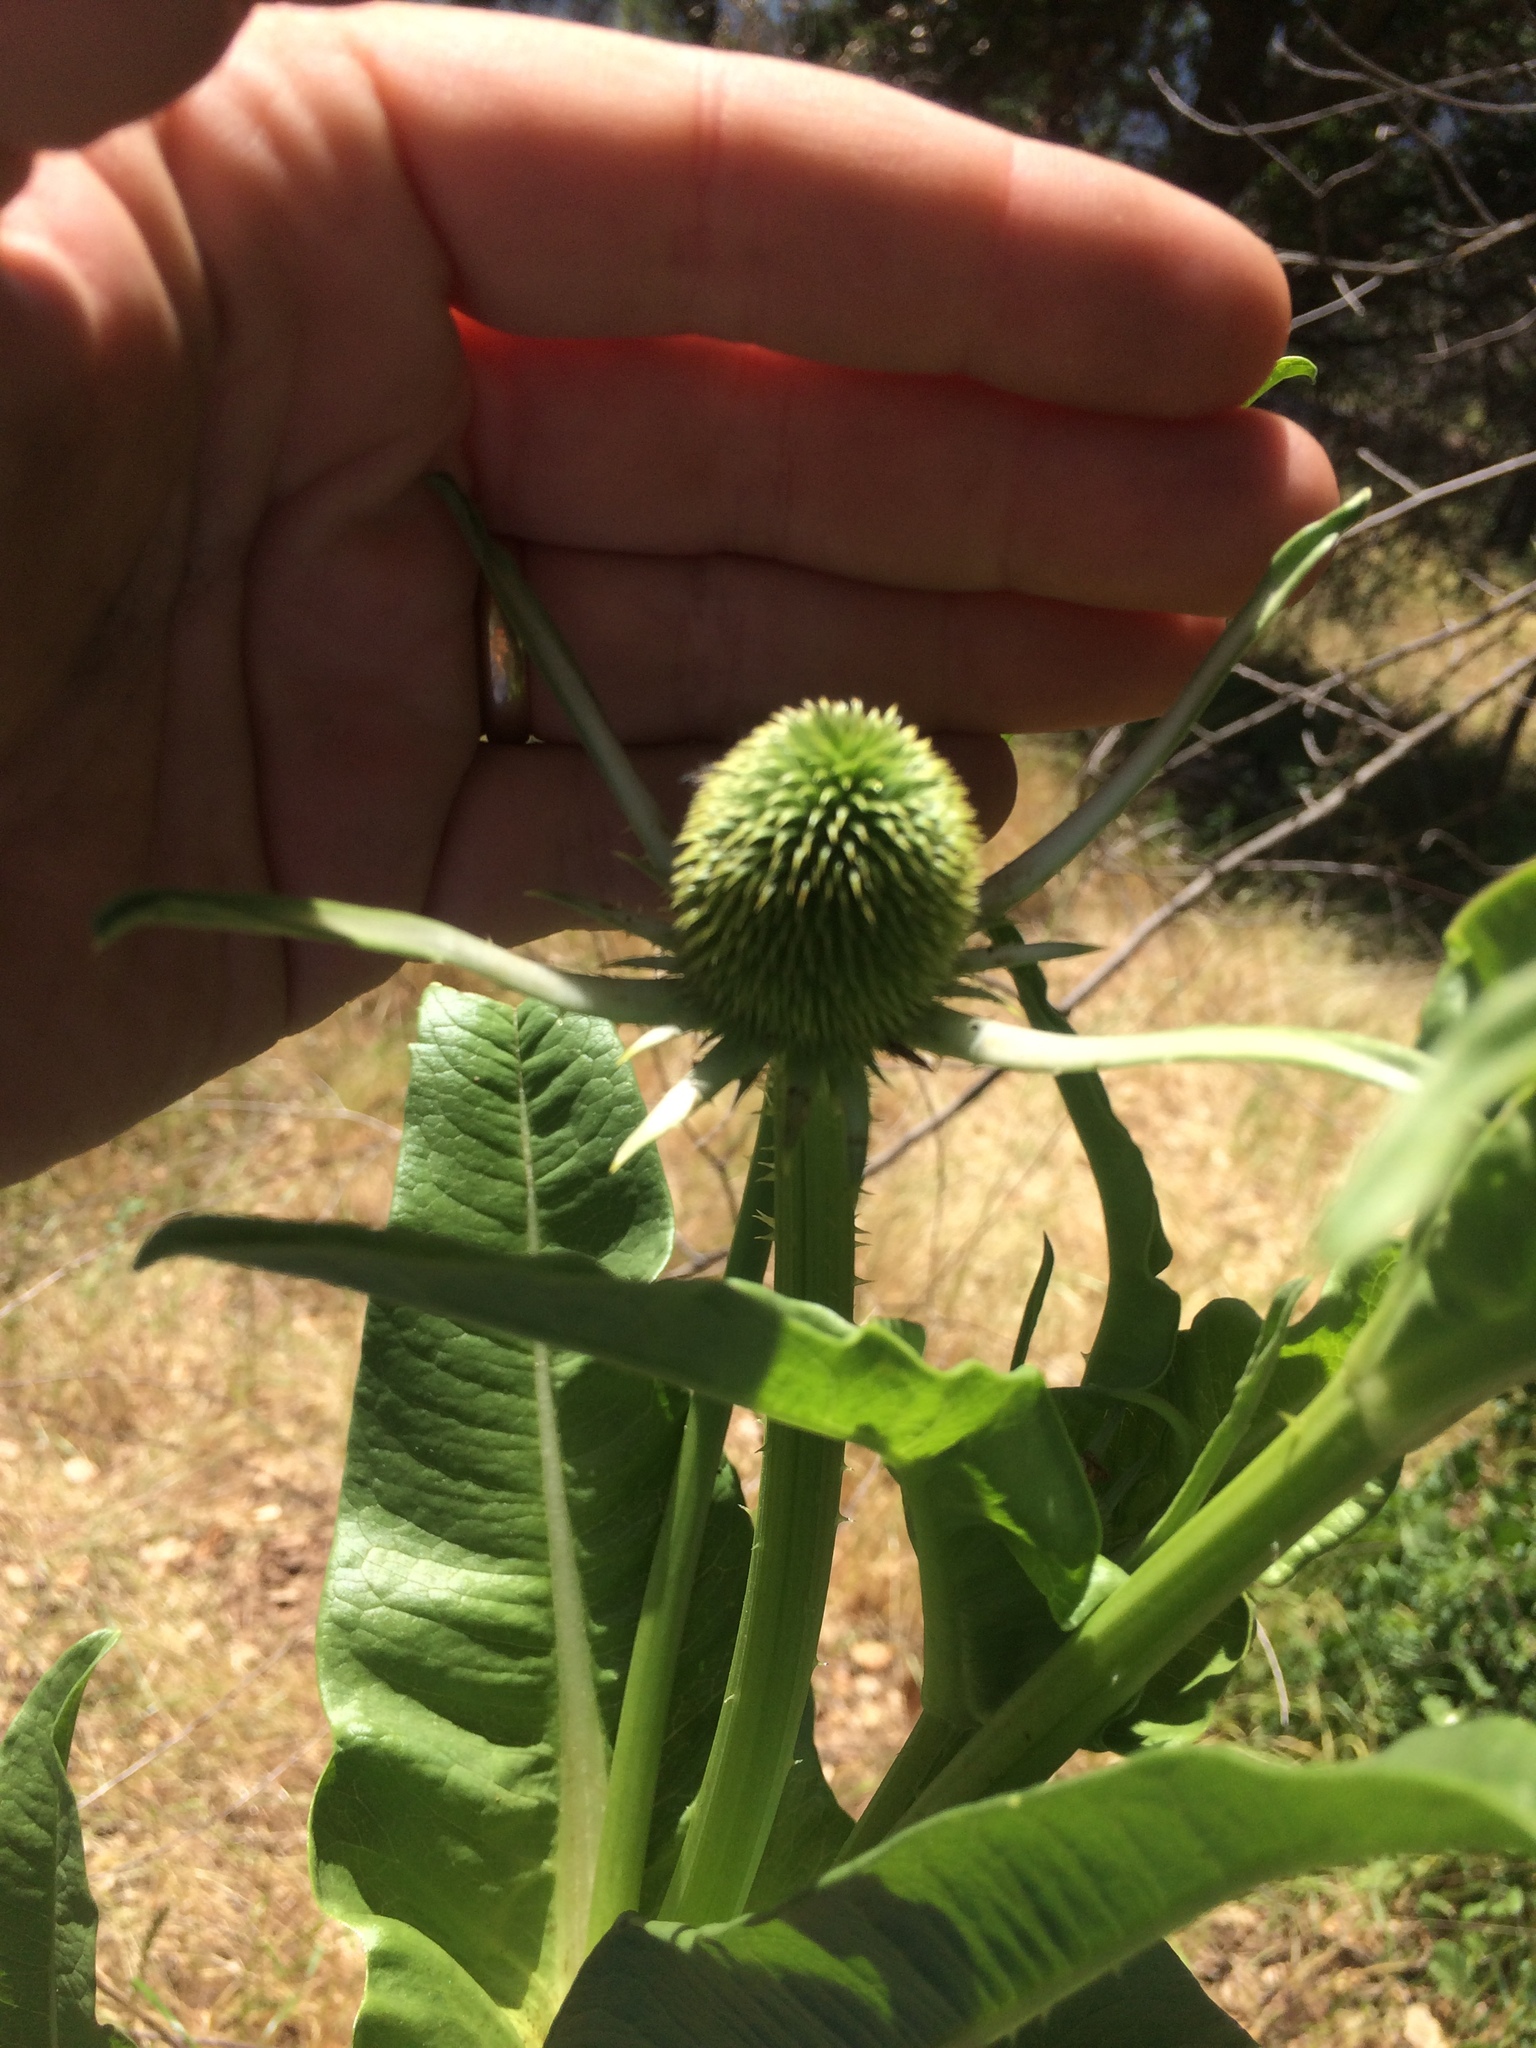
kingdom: Plantae
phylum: Tracheophyta
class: Magnoliopsida
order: Dipsacales
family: Caprifoliaceae
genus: Dipsacus
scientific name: Dipsacus sativus
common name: Fuller's teasel
